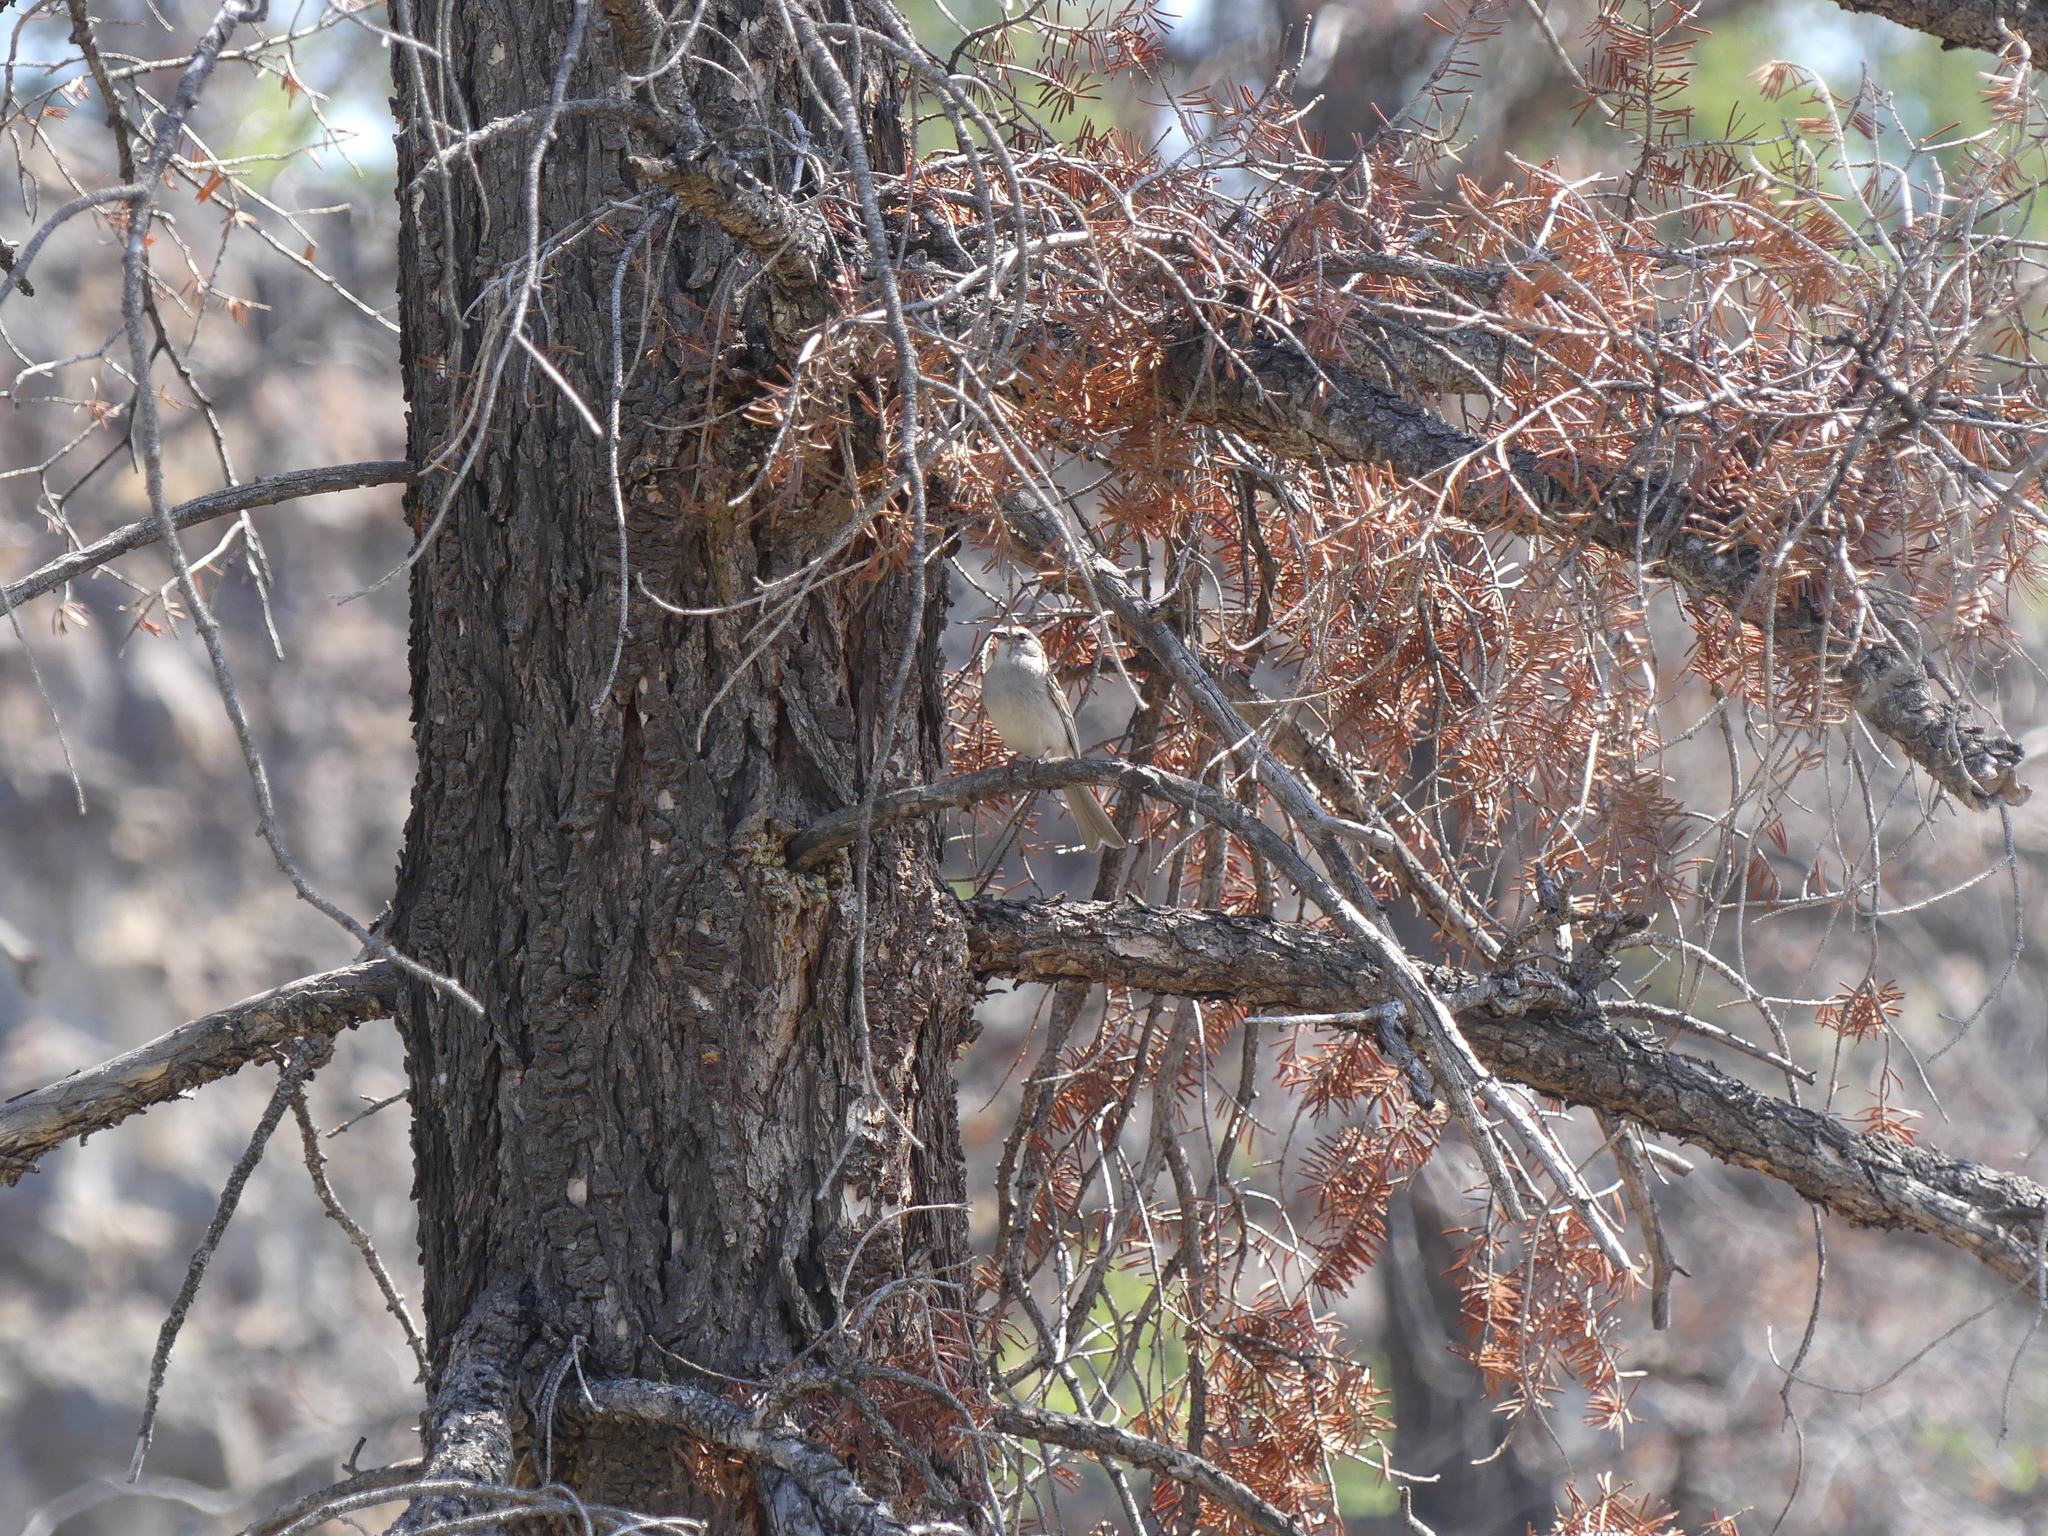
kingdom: Animalia
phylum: Chordata
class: Aves
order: Passeriformes
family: Passerellidae
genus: Spizella
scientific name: Spizella passerina
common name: Chipping sparrow
